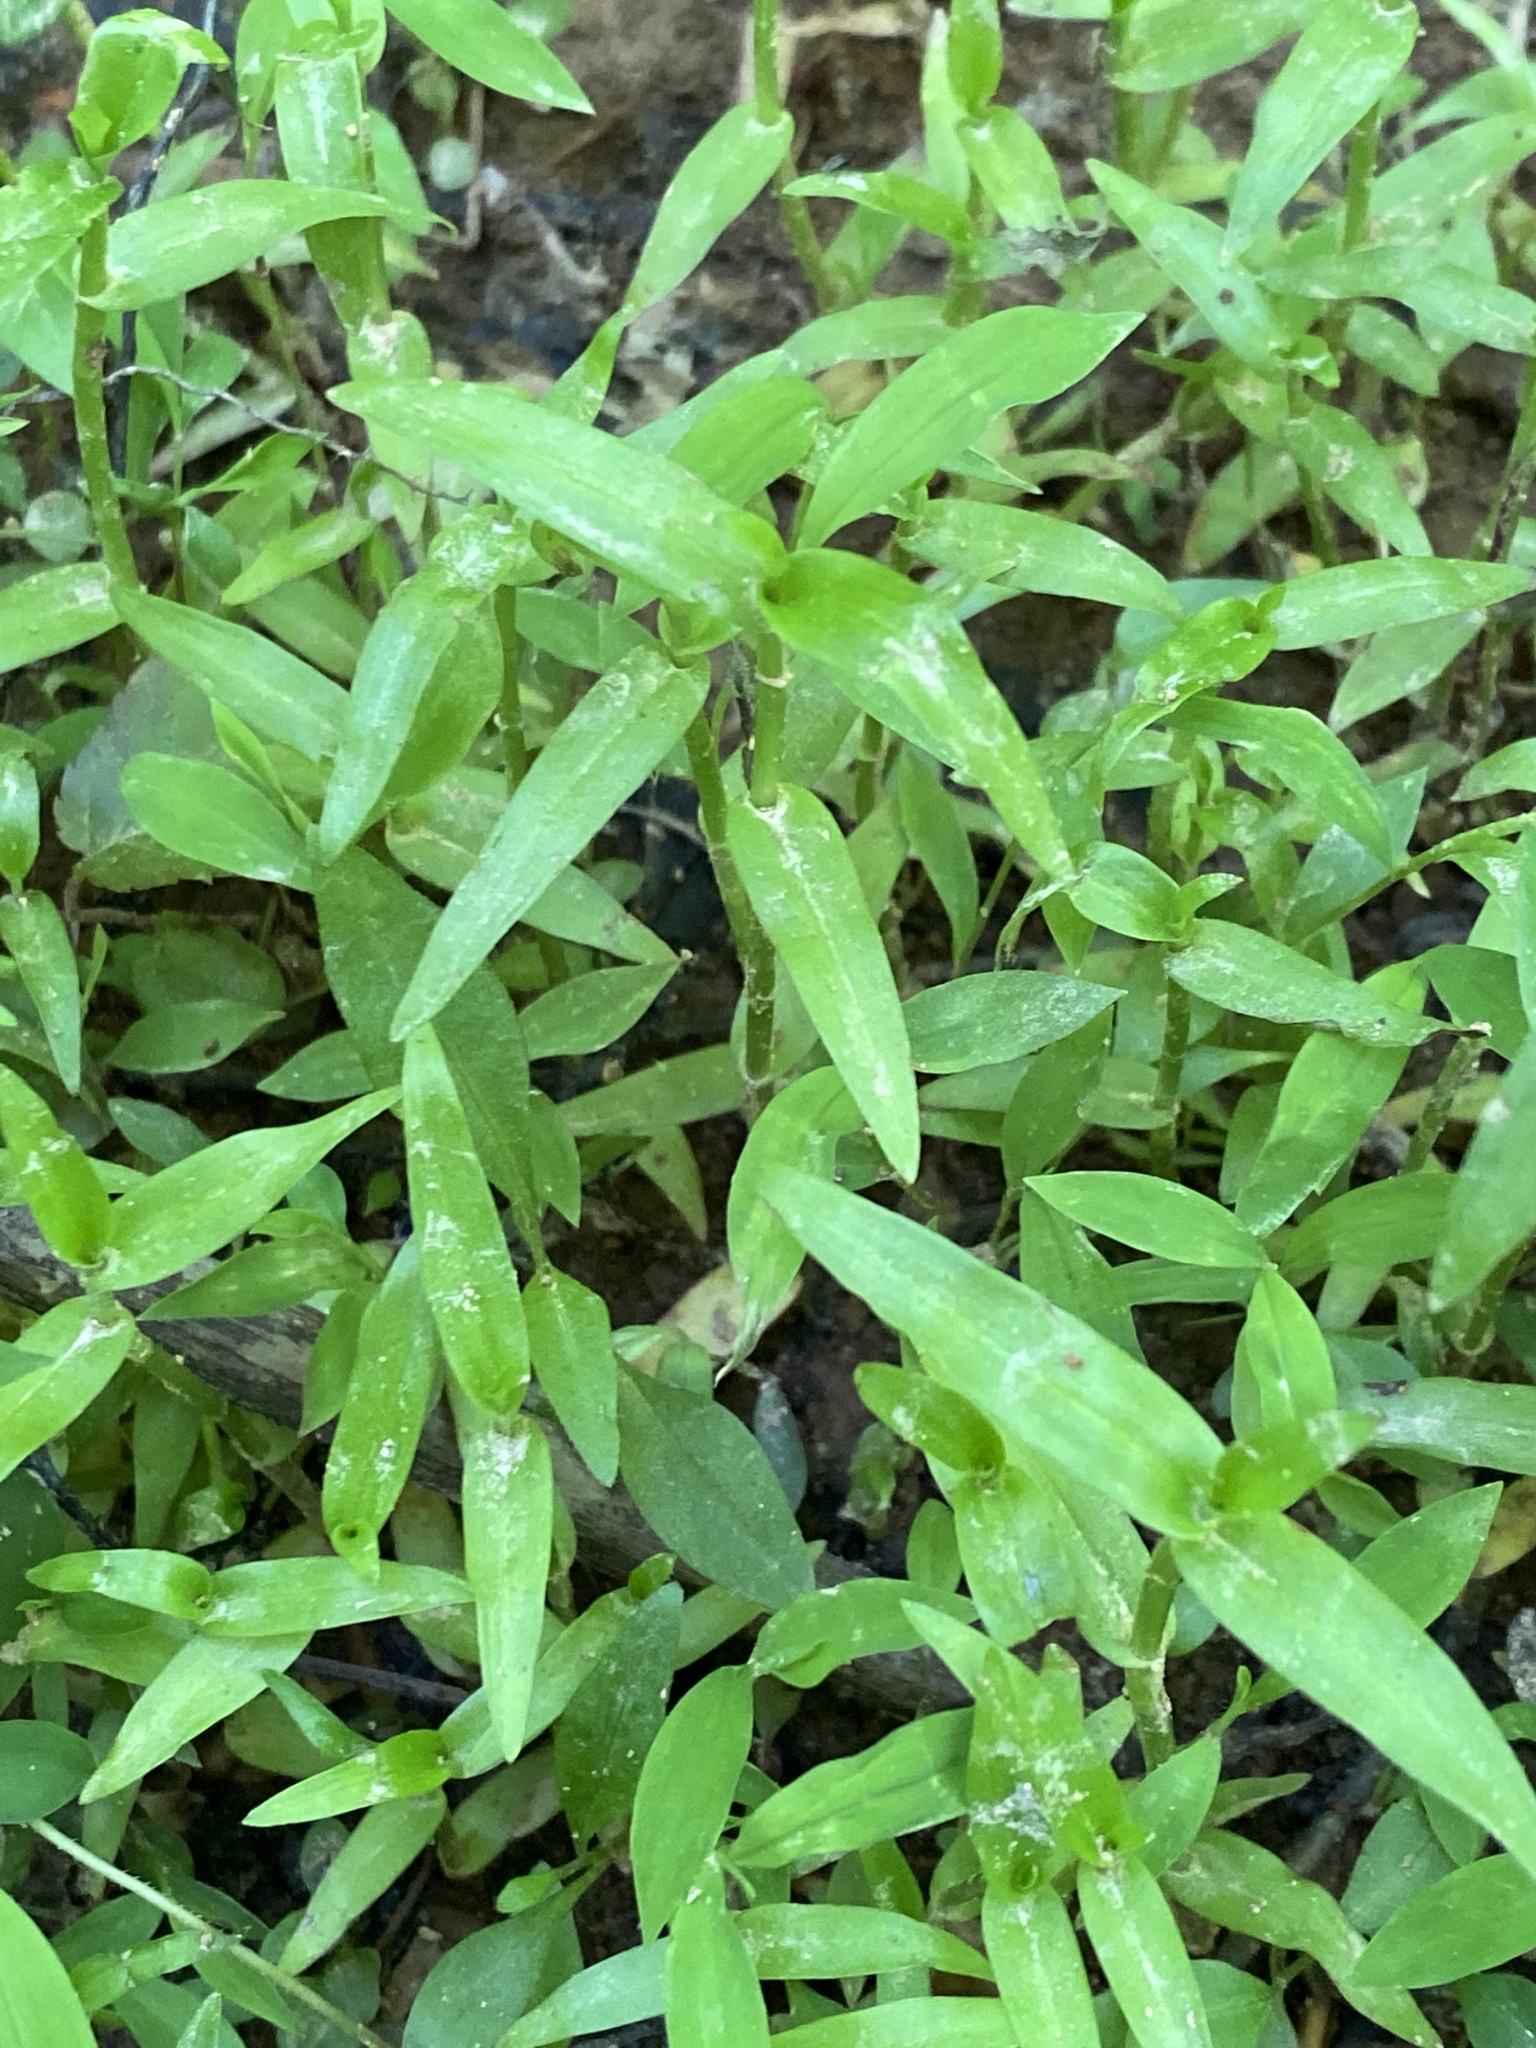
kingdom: Plantae
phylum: Tracheophyta
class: Liliopsida
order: Commelinales
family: Commelinaceae
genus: Murdannia
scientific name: Murdannia keisak
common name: Wartremoving herb
